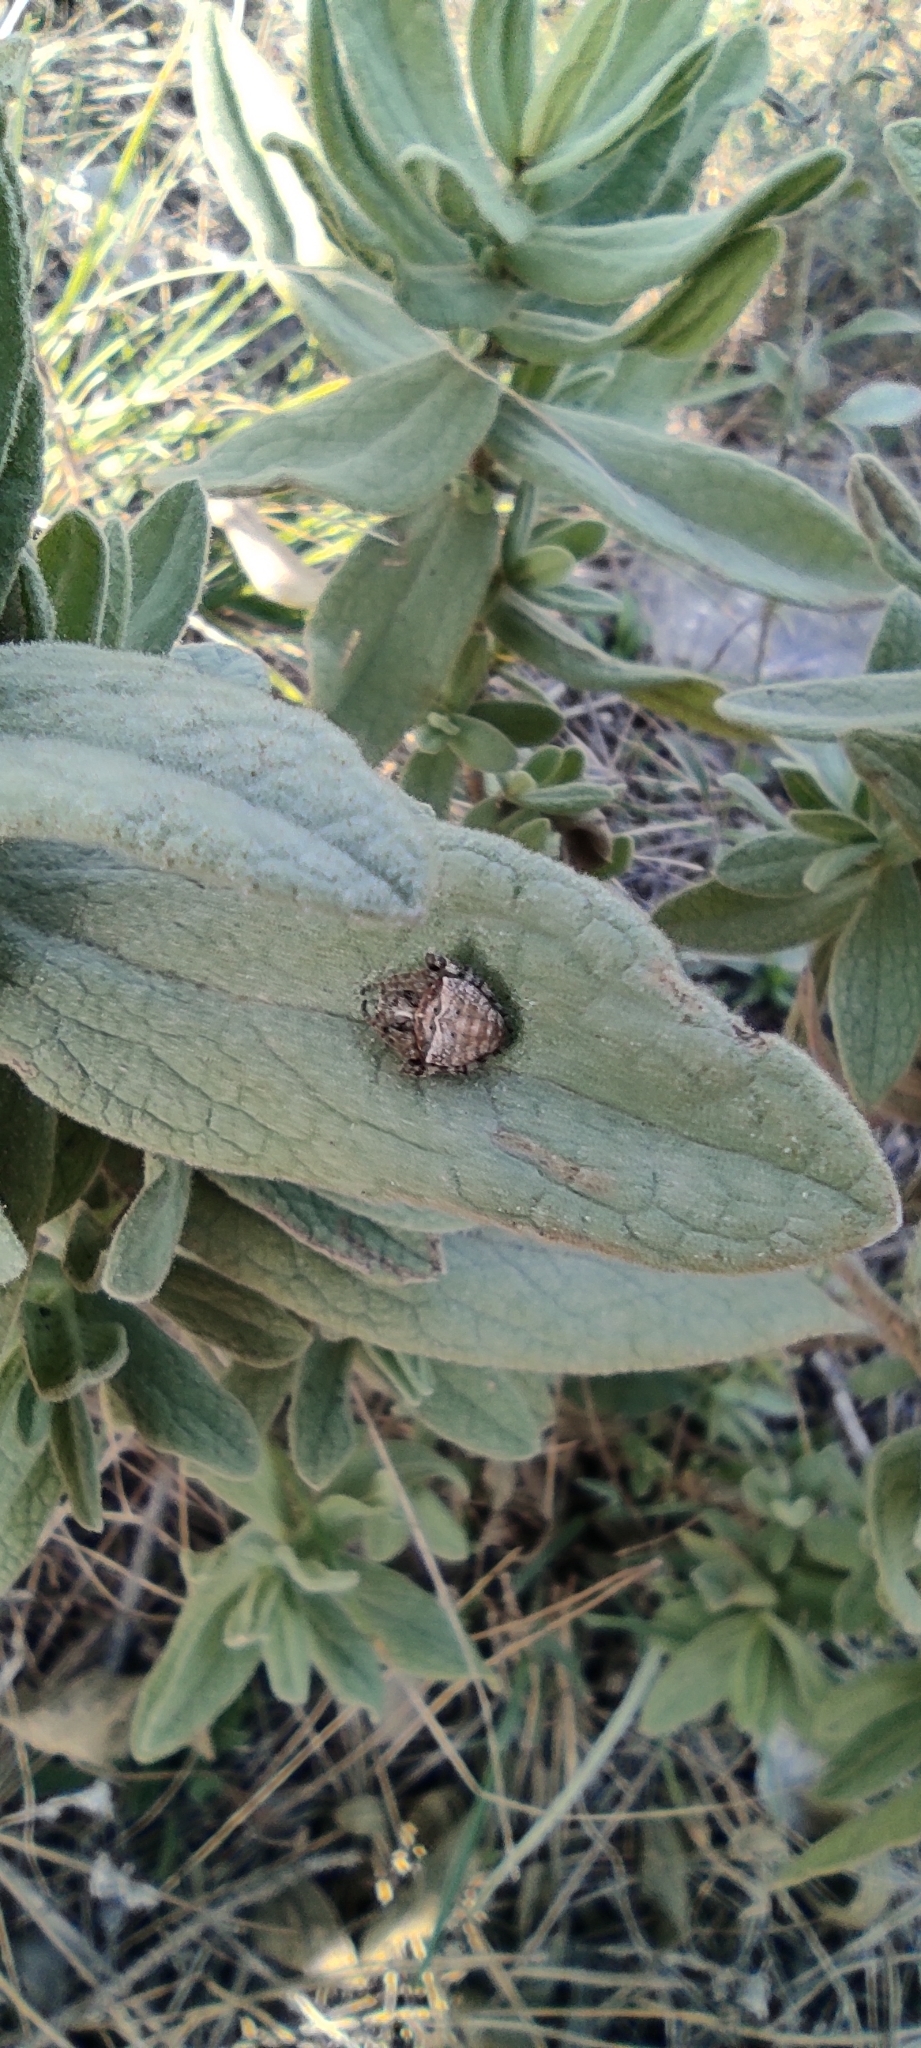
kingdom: Animalia
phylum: Arthropoda
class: Arachnida
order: Araneae
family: Araneidae
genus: Gibbaranea
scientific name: Gibbaranea bituberculata
